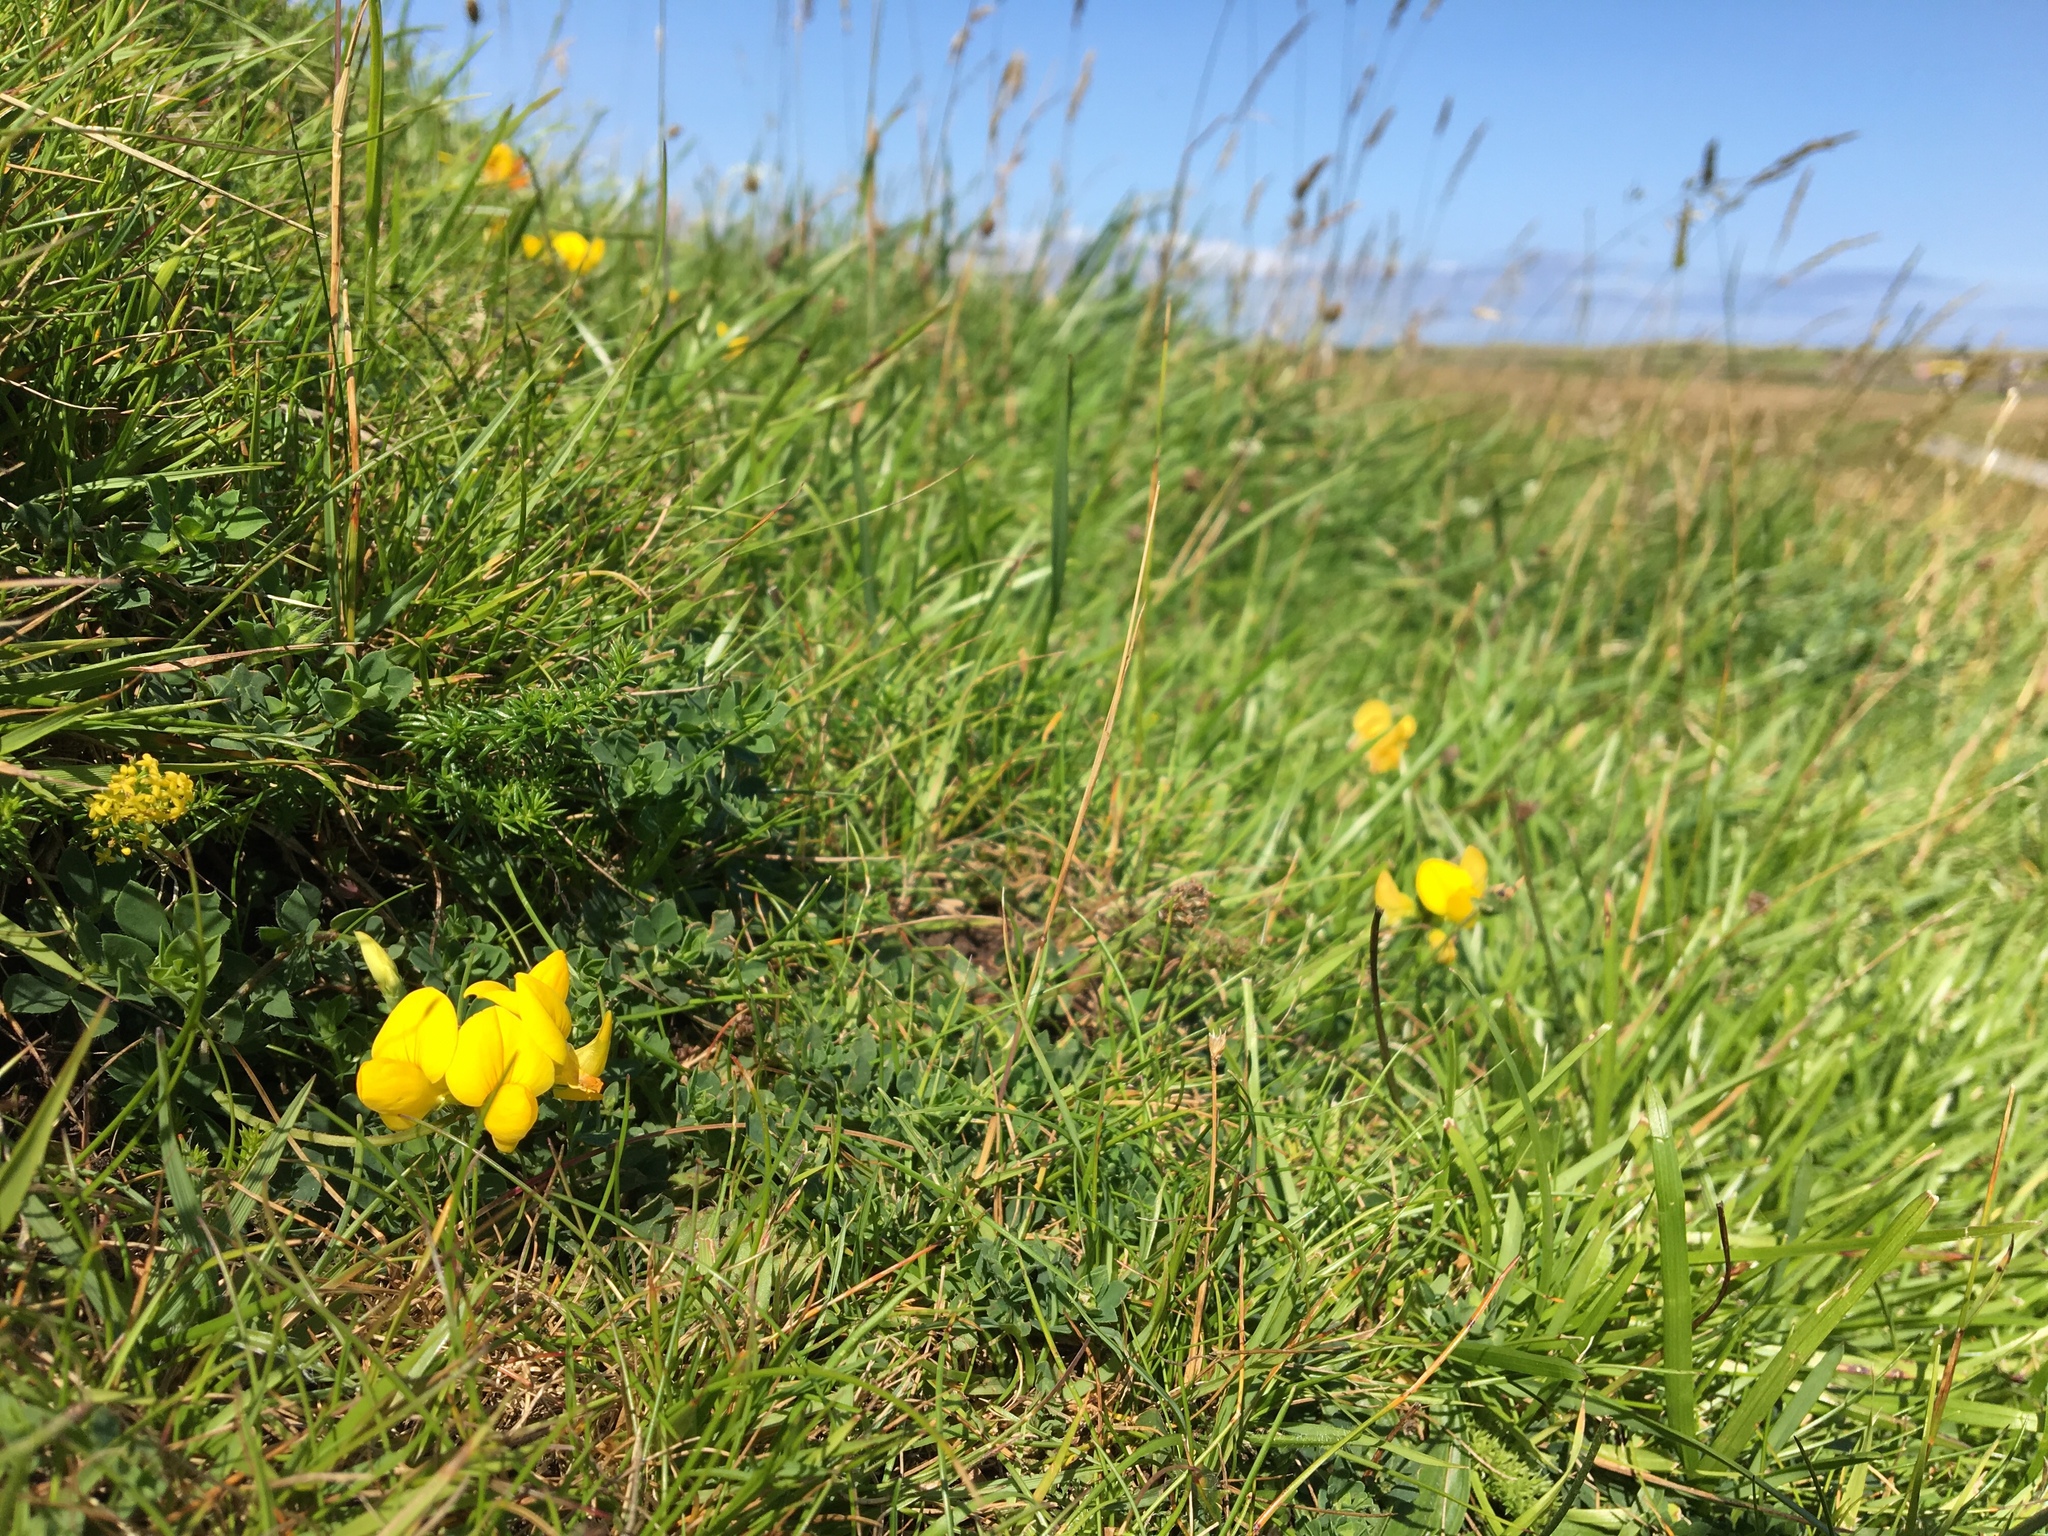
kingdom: Plantae
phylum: Tracheophyta
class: Magnoliopsida
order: Fabales
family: Fabaceae
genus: Lotus
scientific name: Lotus corniculatus
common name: Common bird's-foot-trefoil
